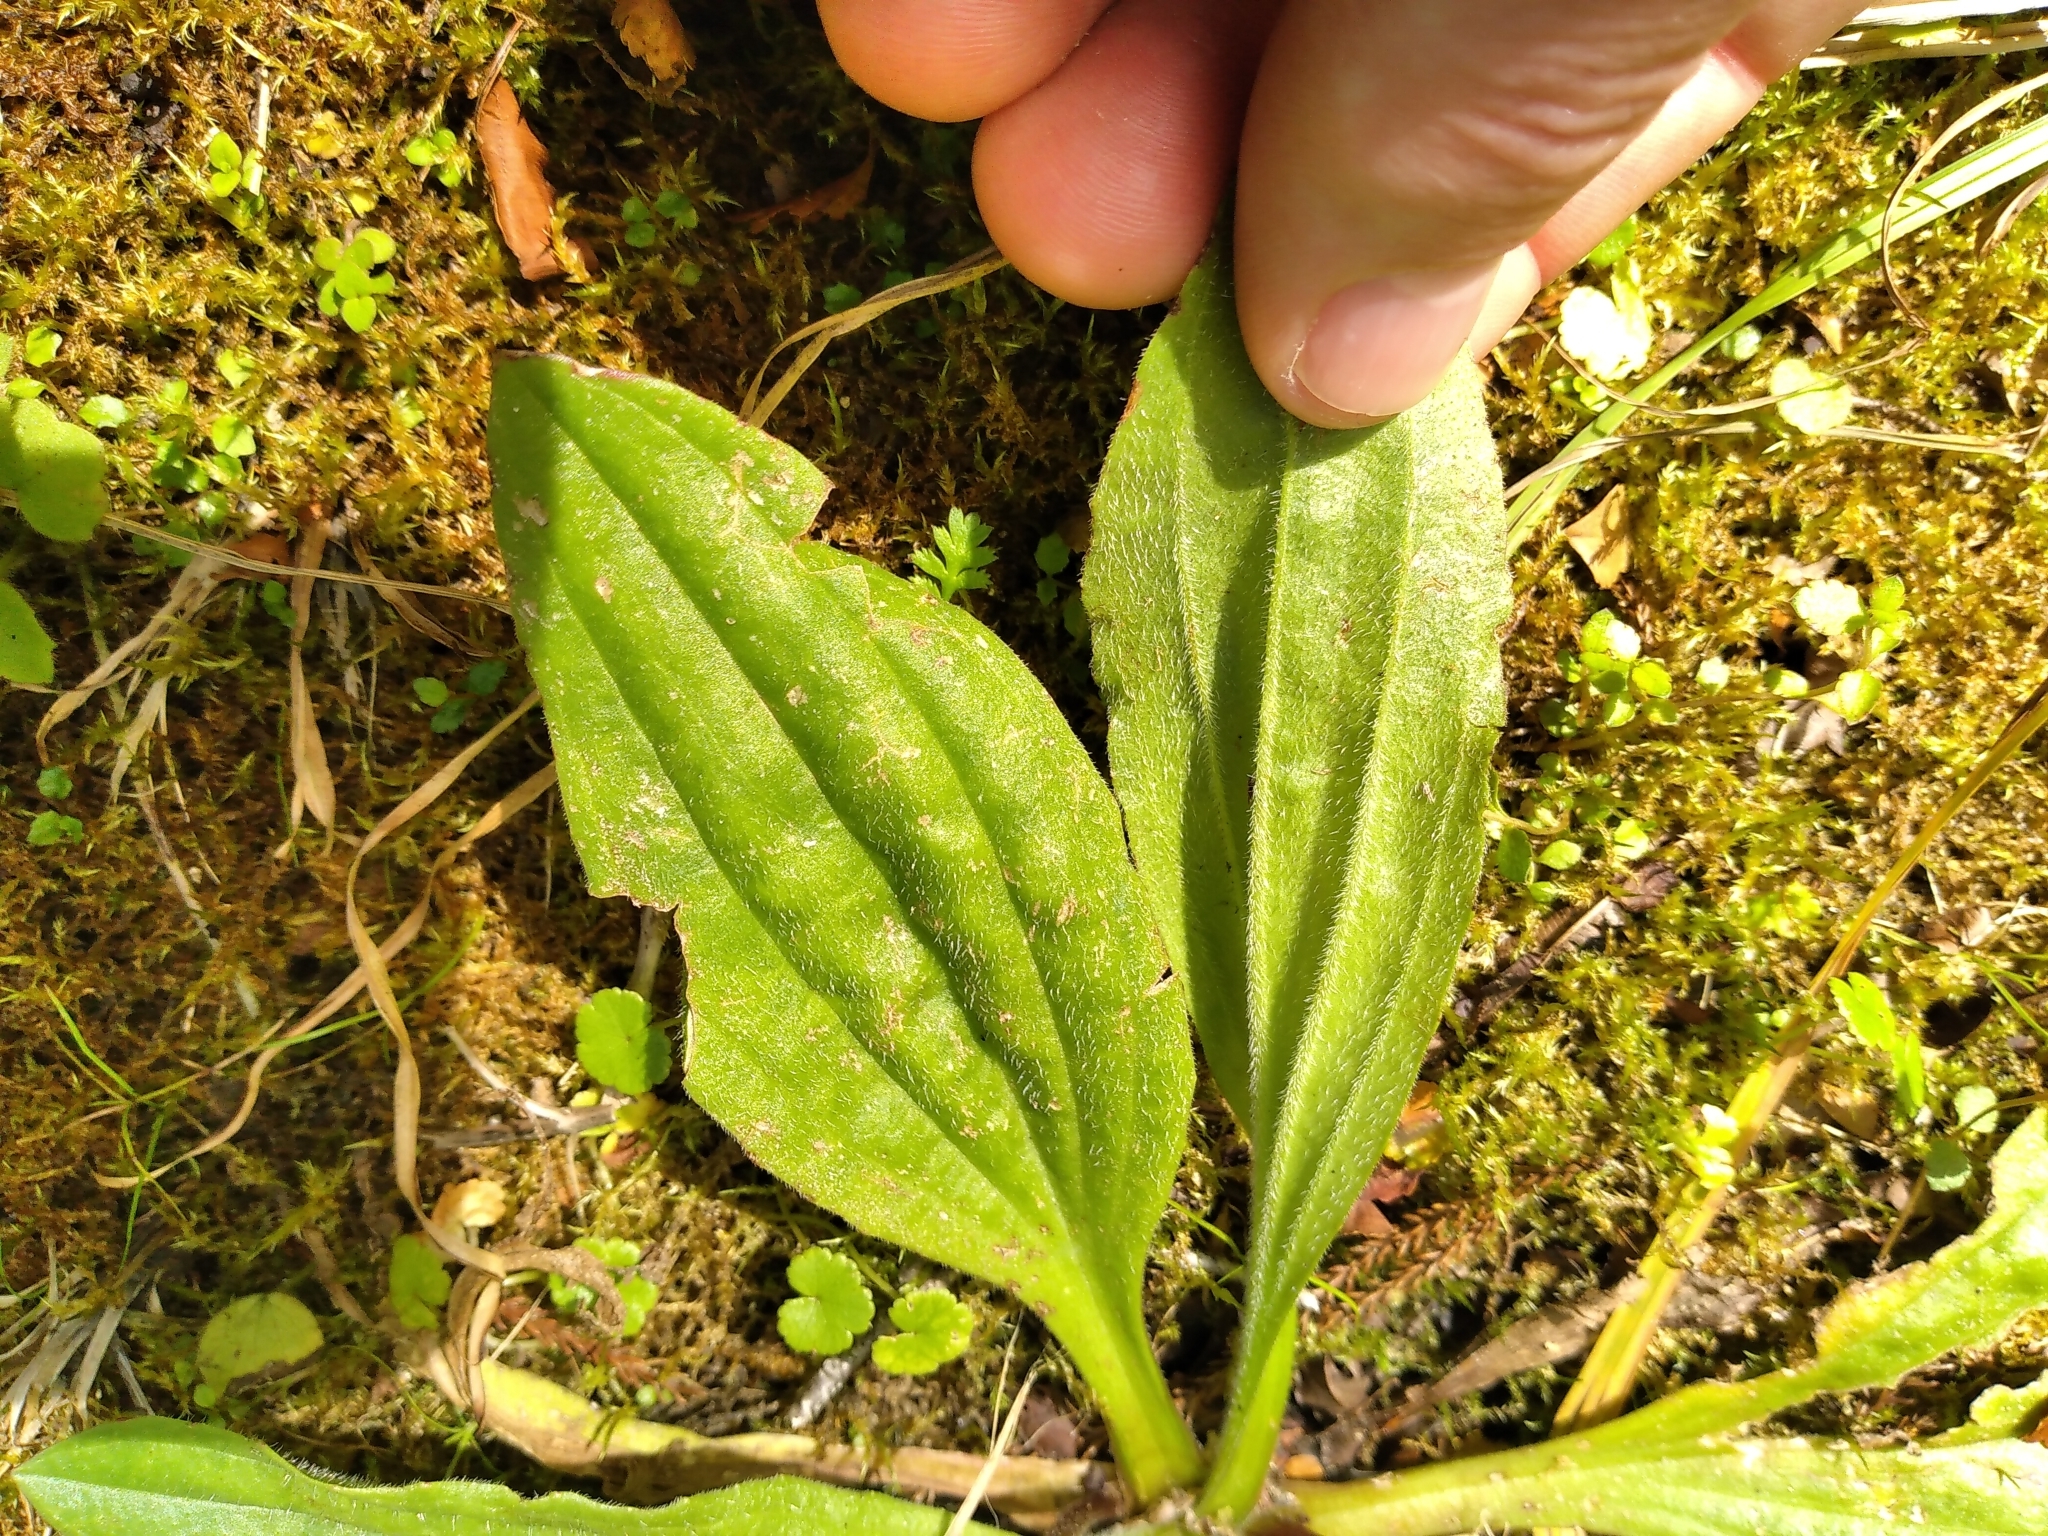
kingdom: Plantae
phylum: Tracheophyta
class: Magnoliopsida
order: Lamiales
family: Plantaginaceae
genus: Plantago
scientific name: Plantago australis
